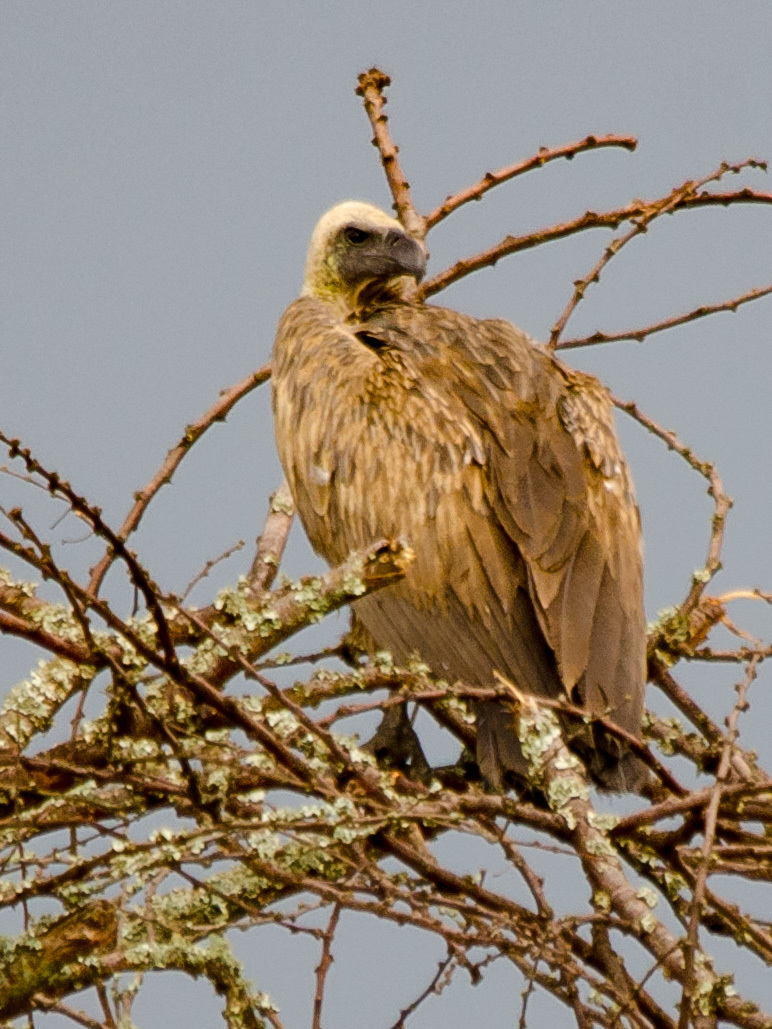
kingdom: Animalia
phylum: Chordata
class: Aves
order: Accipitriformes
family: Accipitridae
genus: Gyps
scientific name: Gyps africanus
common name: White-backed vulture
